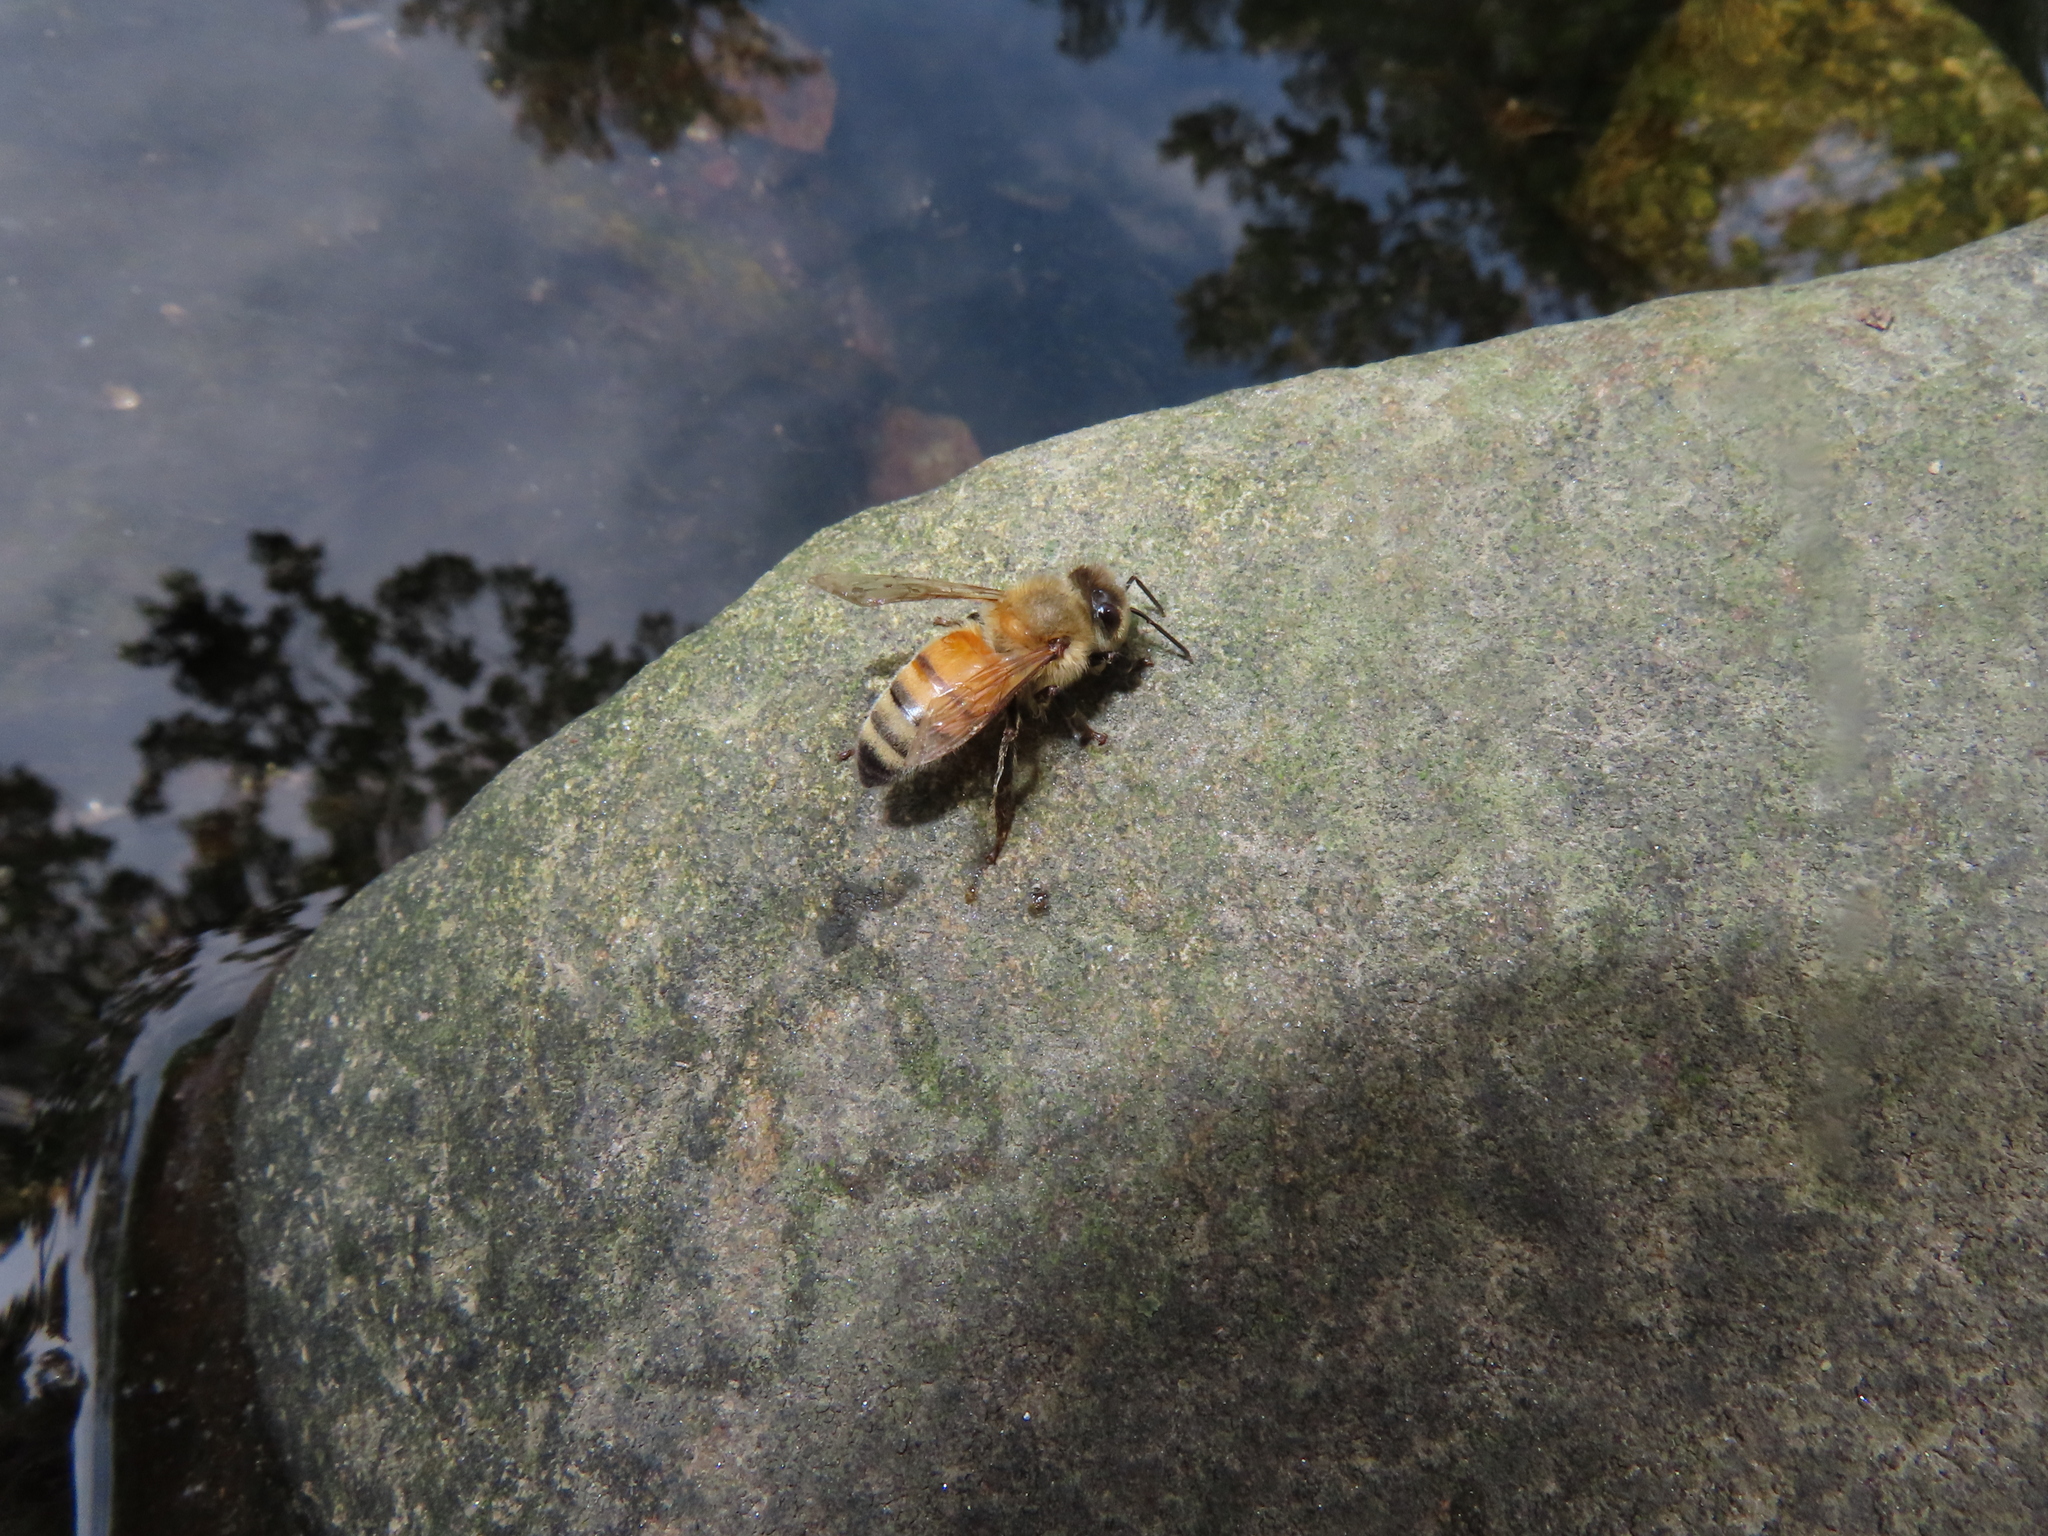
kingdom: Animalia
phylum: Arthropoda
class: Insecta
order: Hymenoptera
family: Apidae
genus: Apis
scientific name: Apis mellifera
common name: Honey bee
